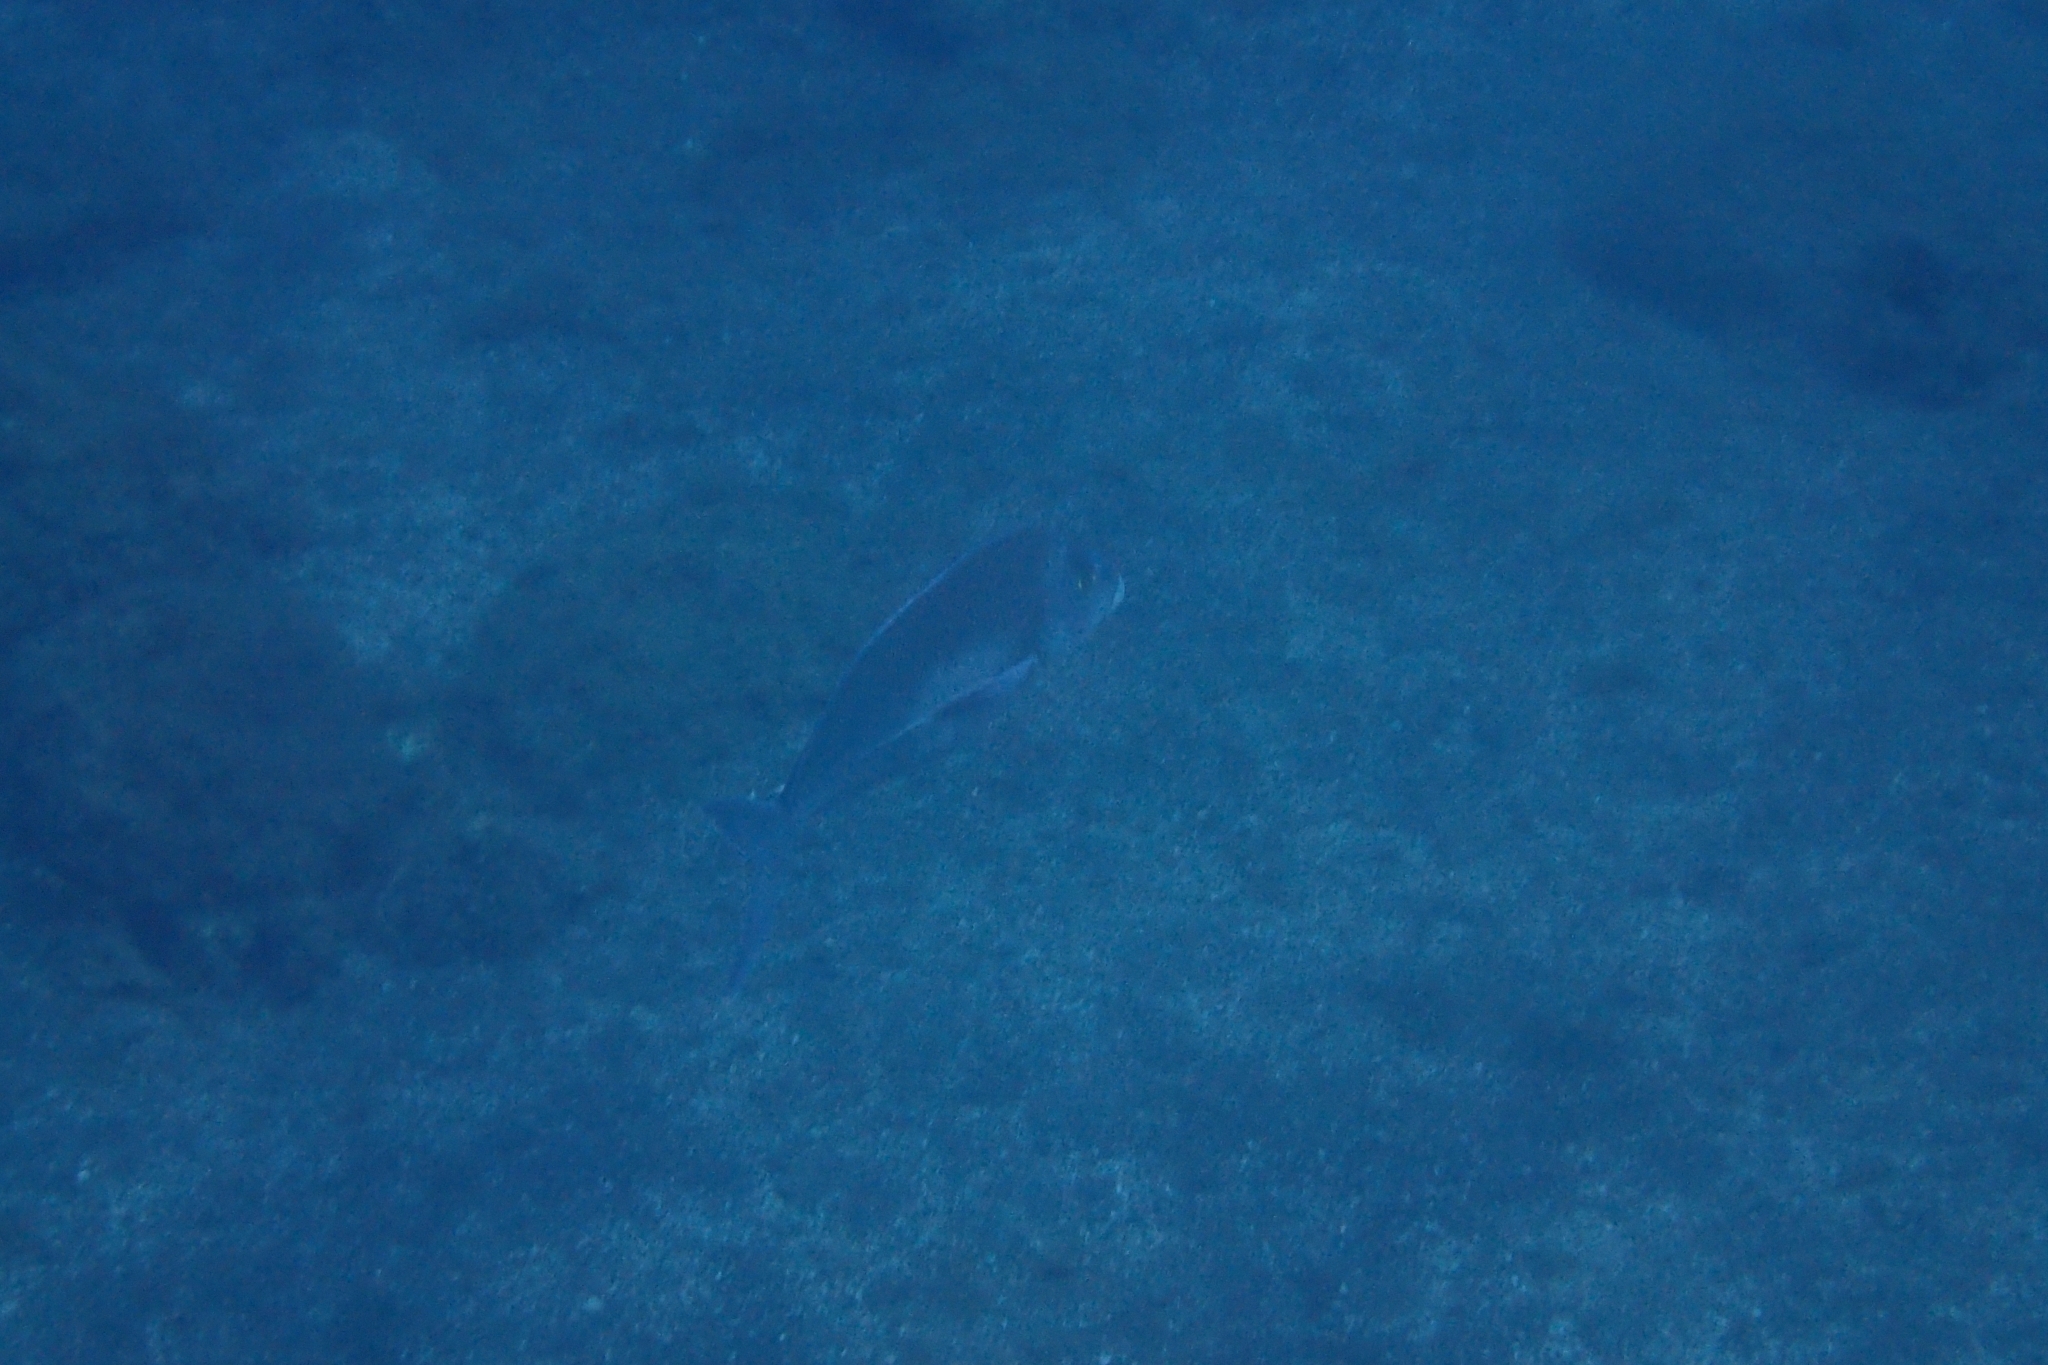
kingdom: Animalia
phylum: Chordata
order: Perciformes
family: Cheilodactylidae
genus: Nemadactylus
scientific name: Nemadactylus douglasii
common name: Porae
